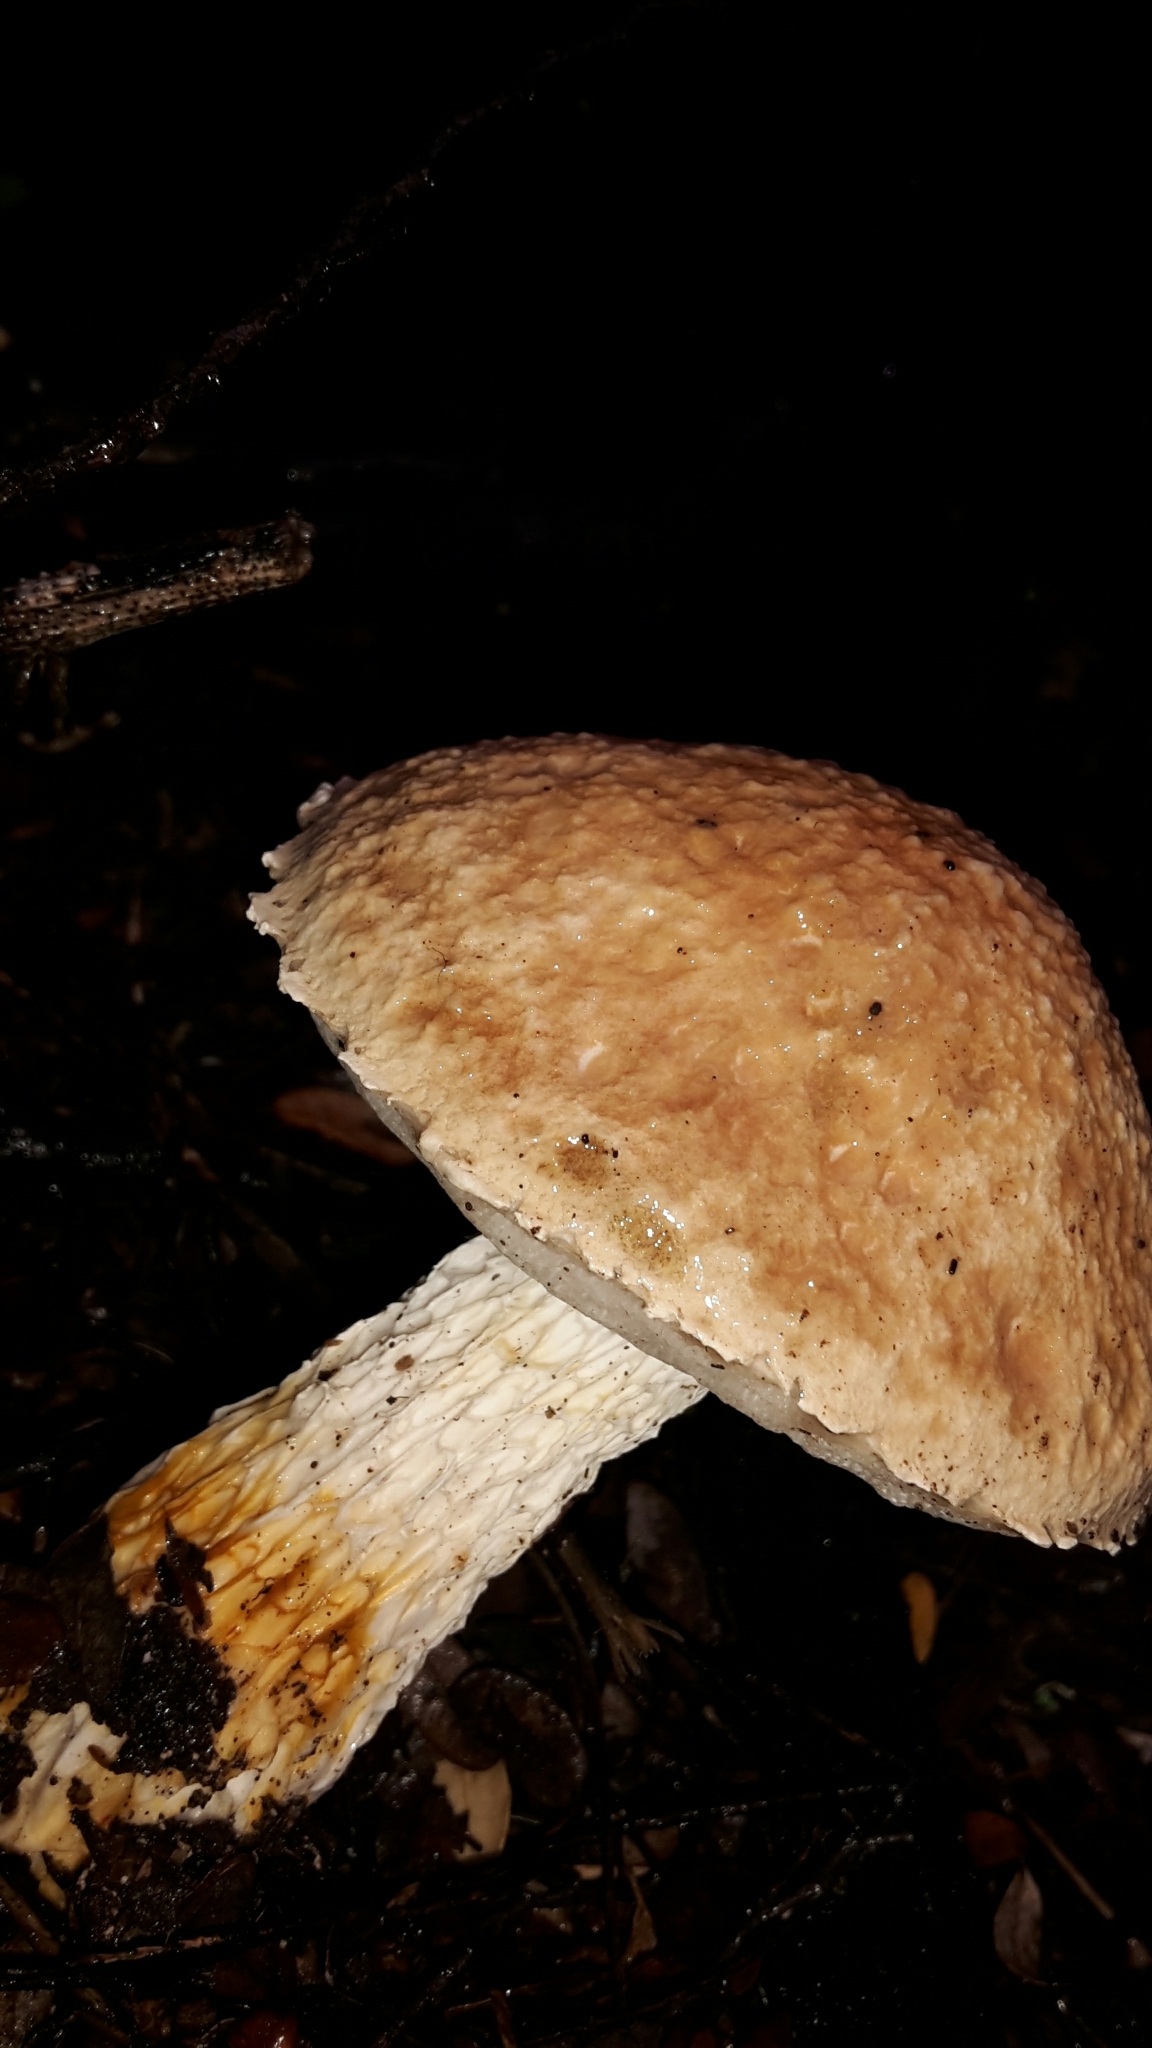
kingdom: Fungi
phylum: Basidiomycota
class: Agaricomycetes
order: Boletales
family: Boletaceae
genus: Fistulinella
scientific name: Fistulinella nivea
